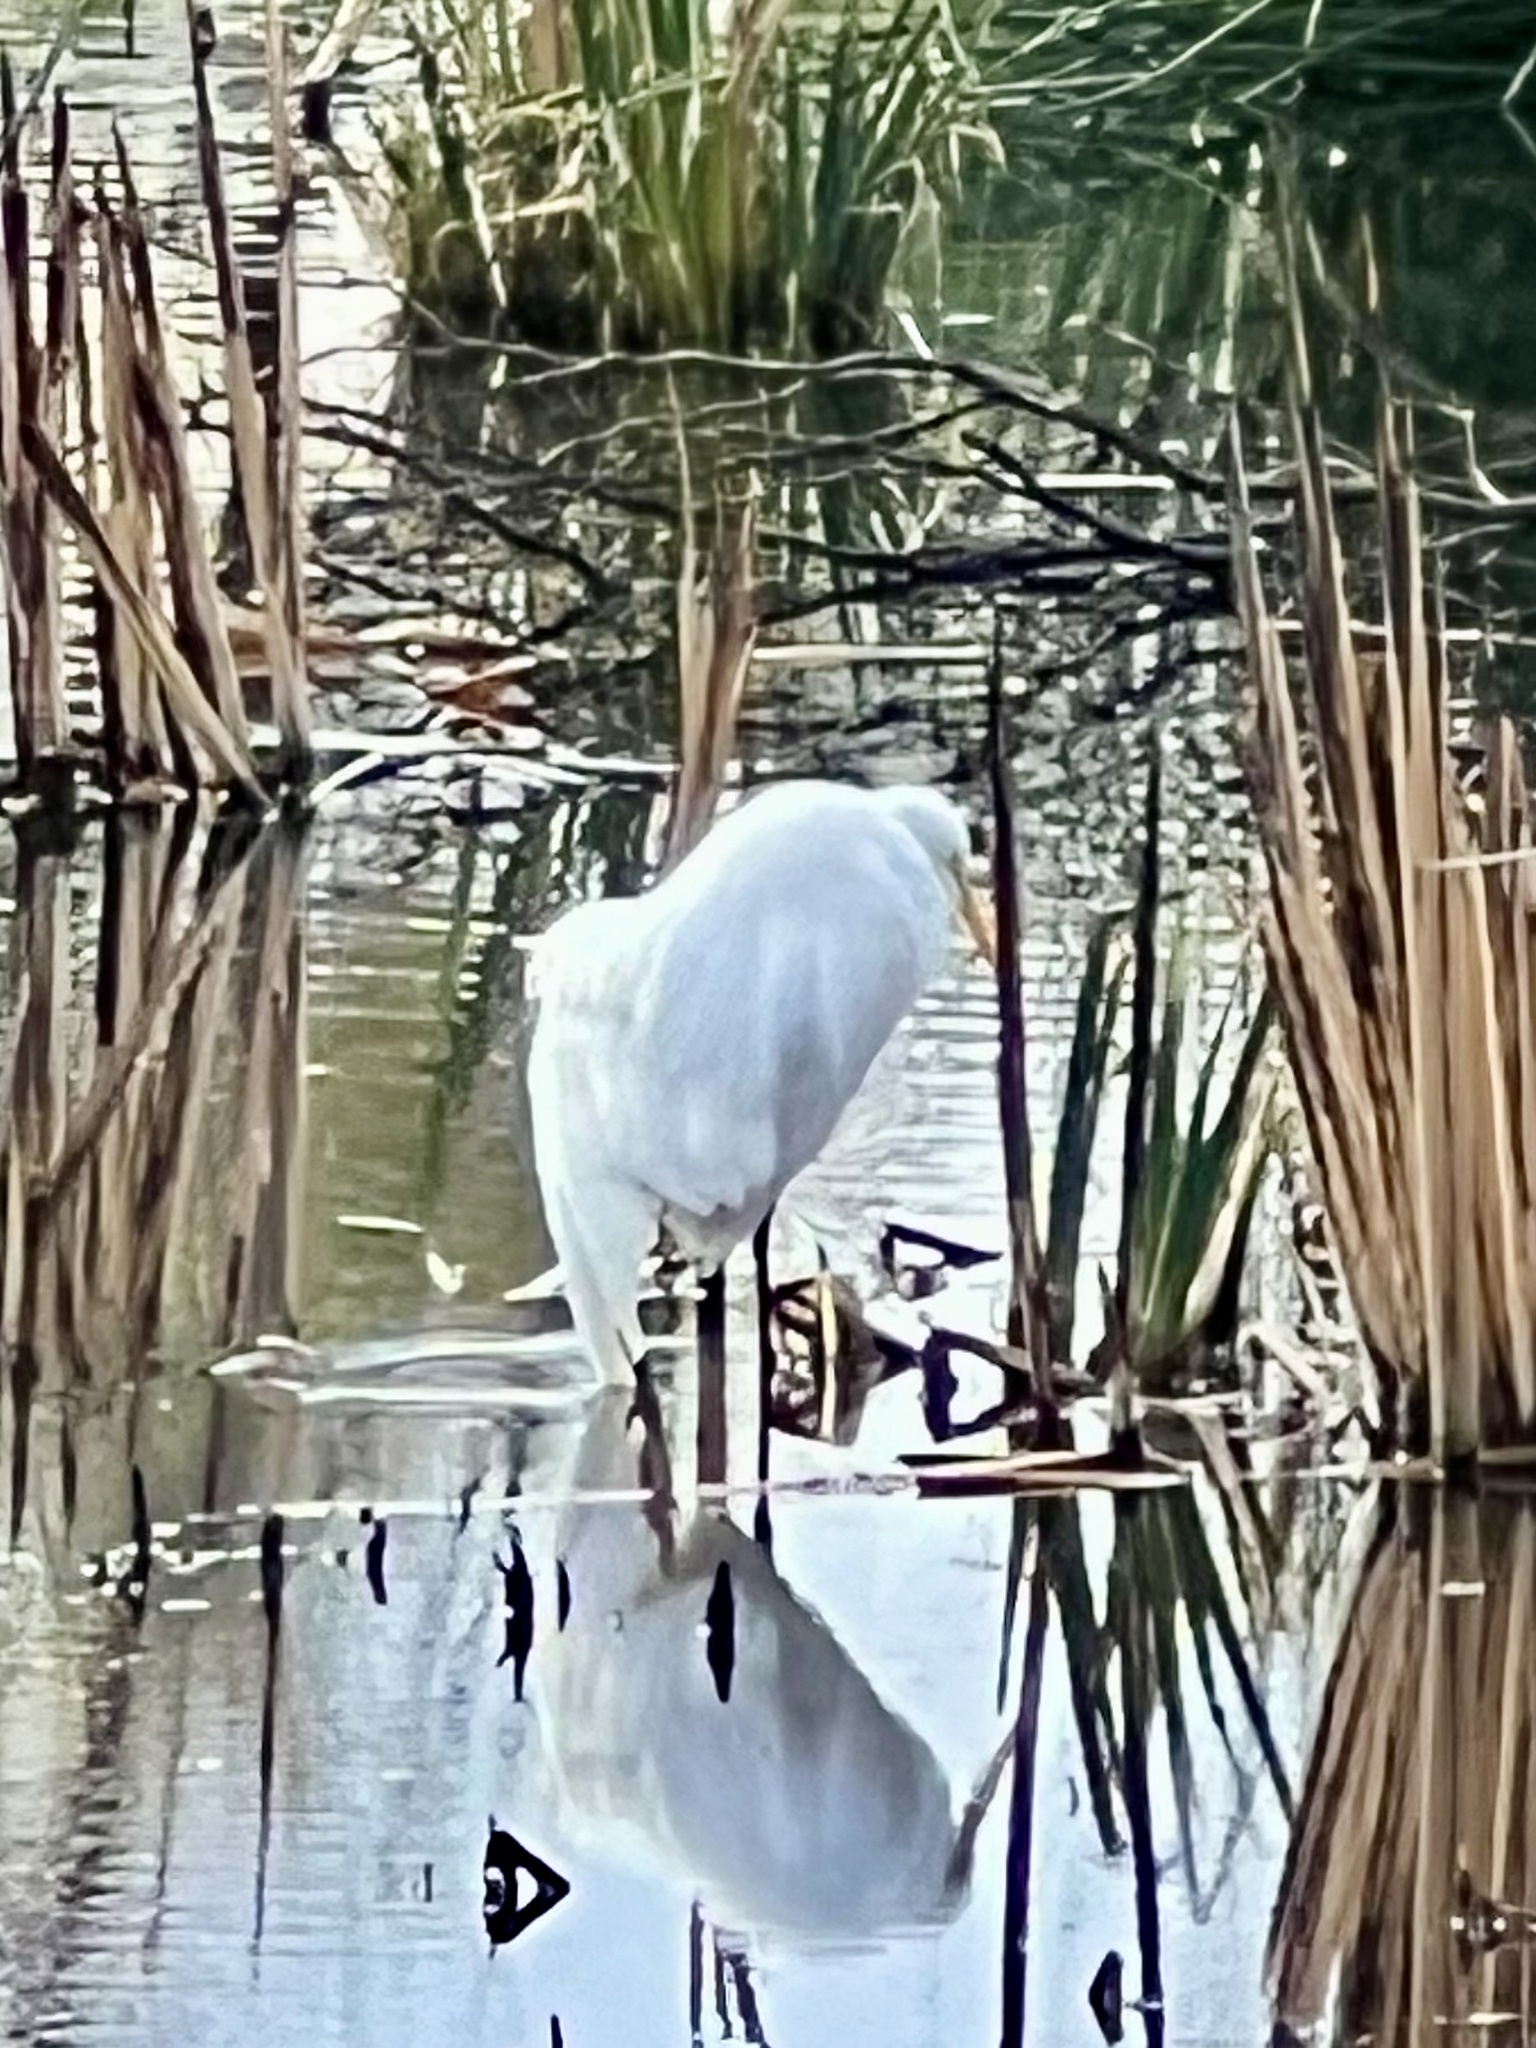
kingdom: Animalia
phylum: Chordata
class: Aves
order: Pelecaniformes
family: Ardeidae
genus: Ardea
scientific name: Ardea alba
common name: Great egret
